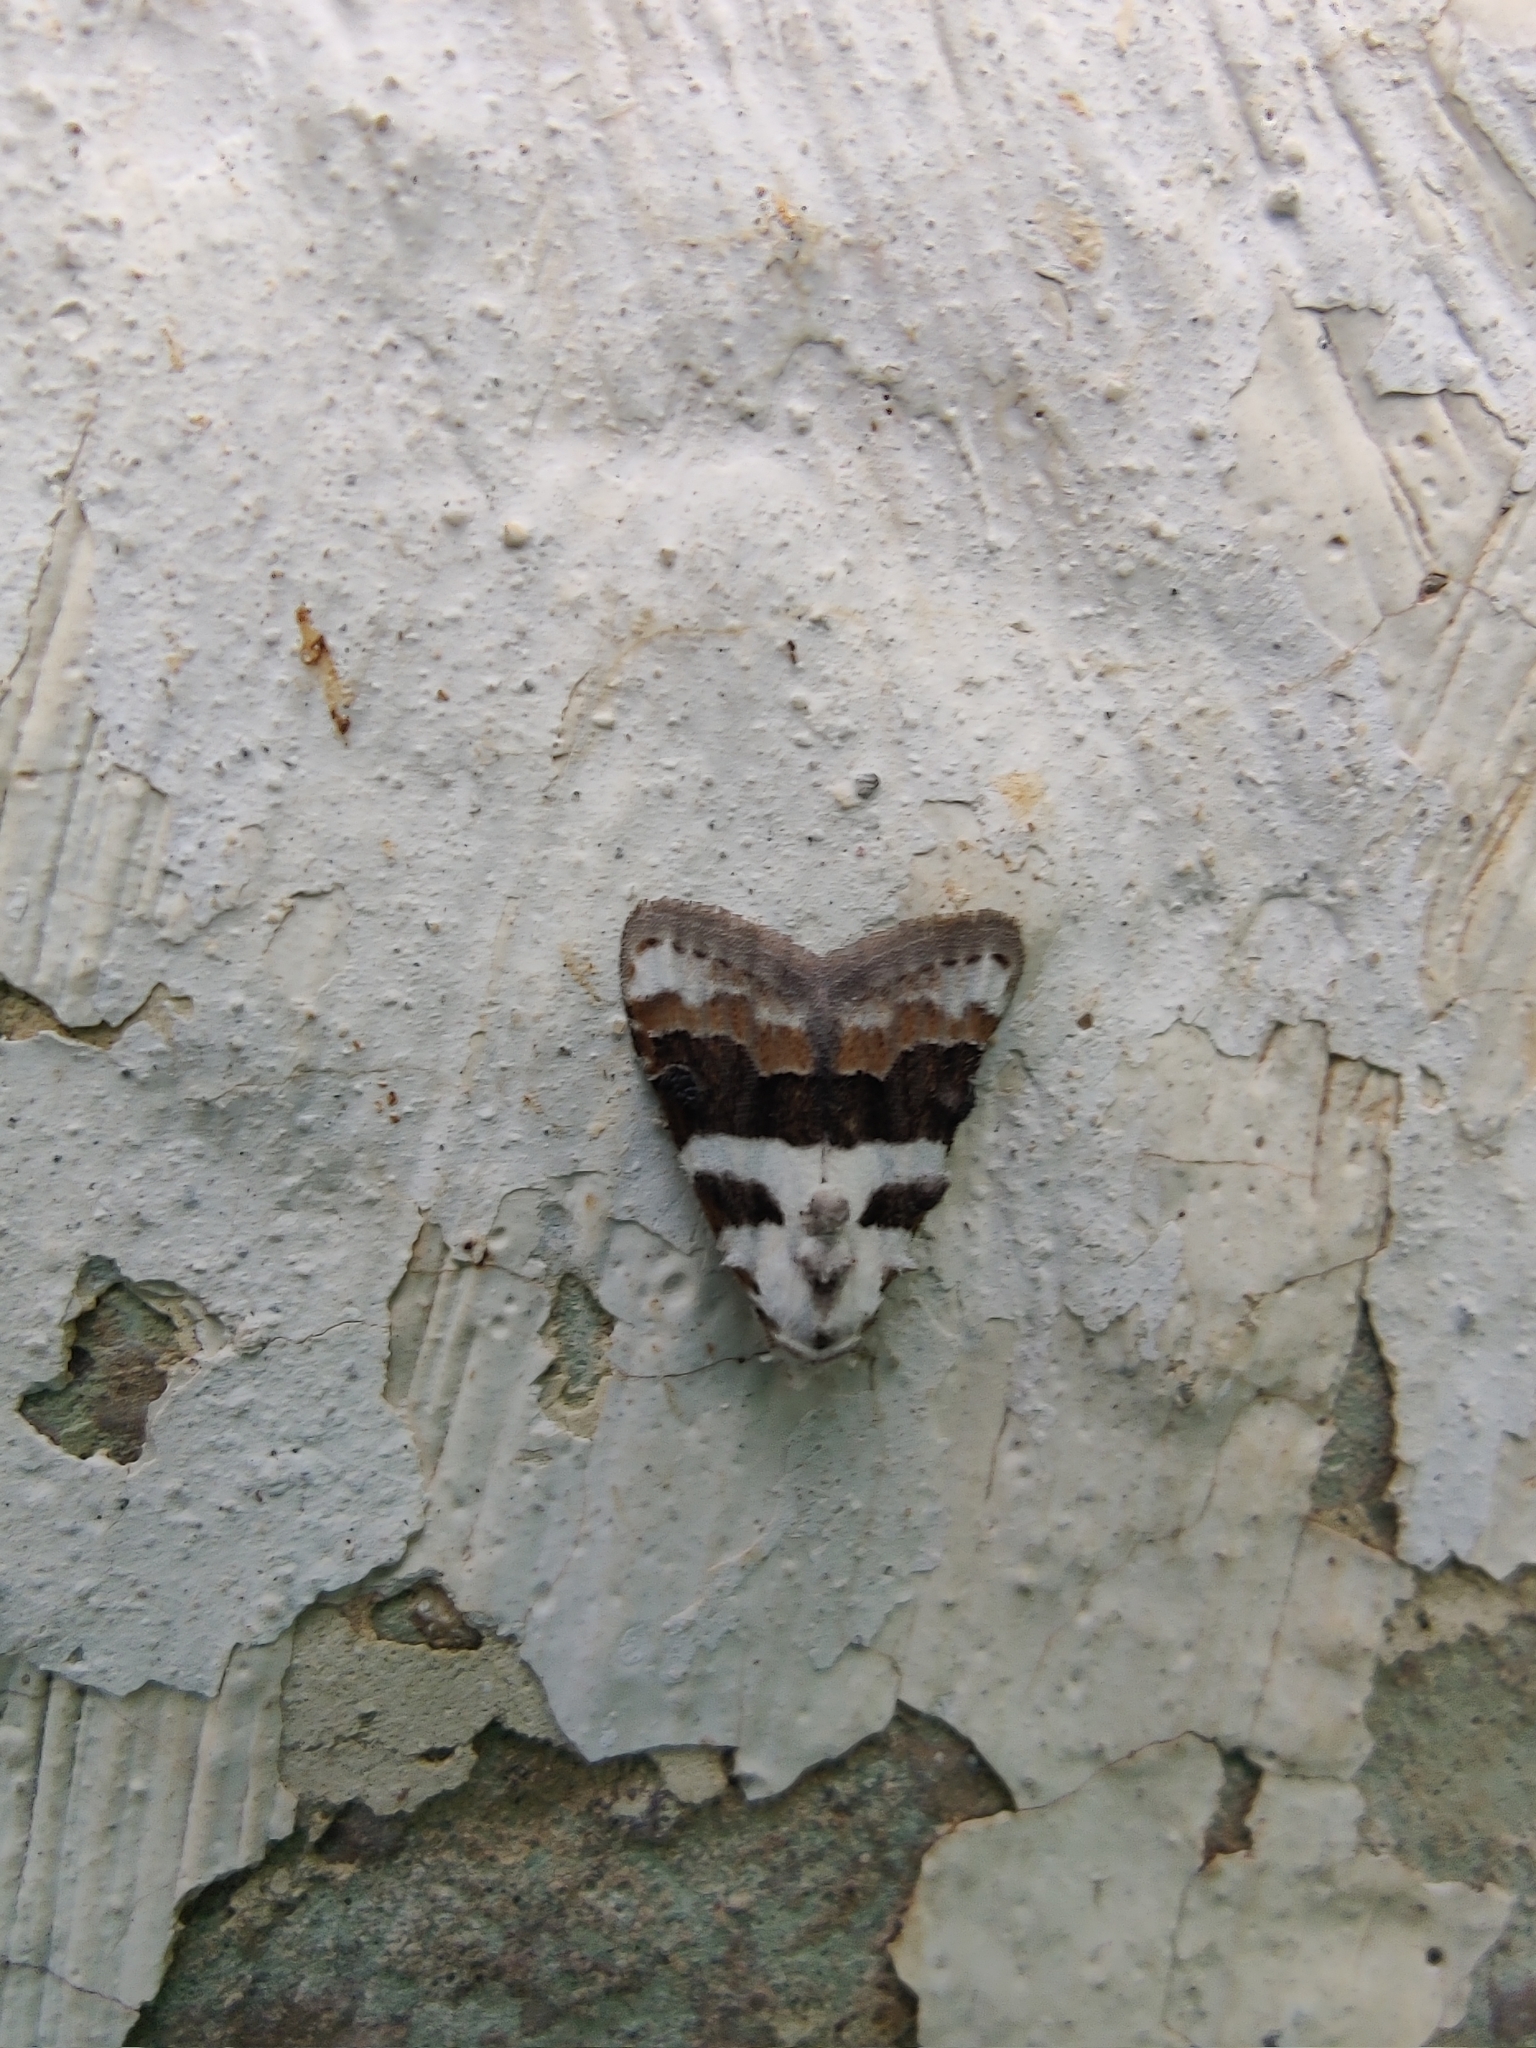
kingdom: Animalia
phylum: Arthropoda
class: Insecta
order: Lepidoptera
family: Nolidae
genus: Nola
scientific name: Nola lucidalis
